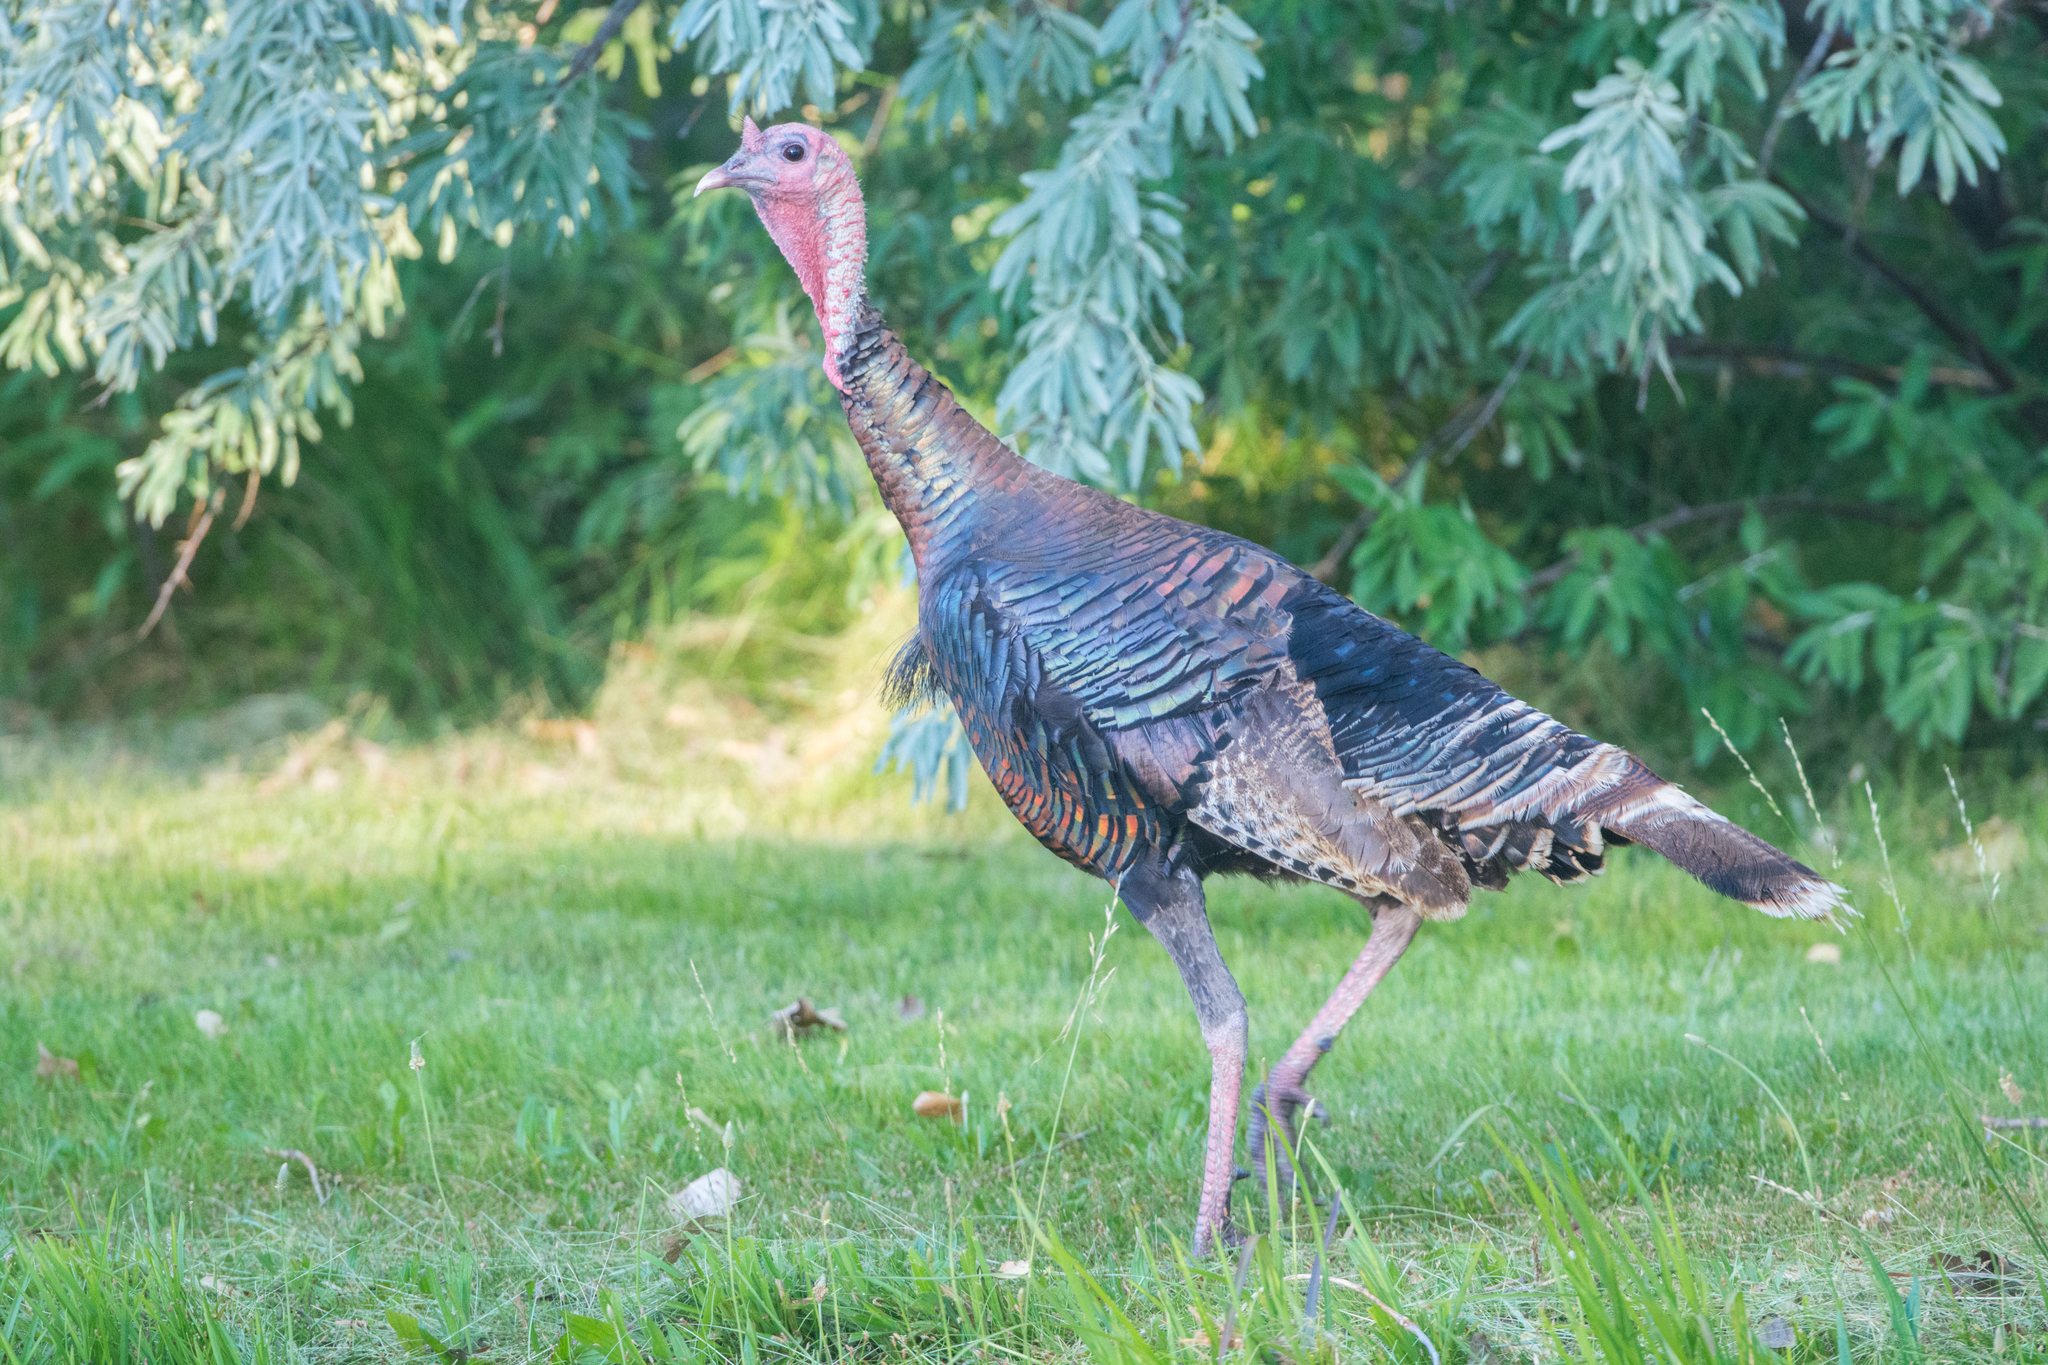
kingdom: Animalia
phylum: Chordata
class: Aves
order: Galliformes
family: Phasianidae
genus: Meleagris
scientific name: Meleagris gallopavo
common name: Wild turkey
